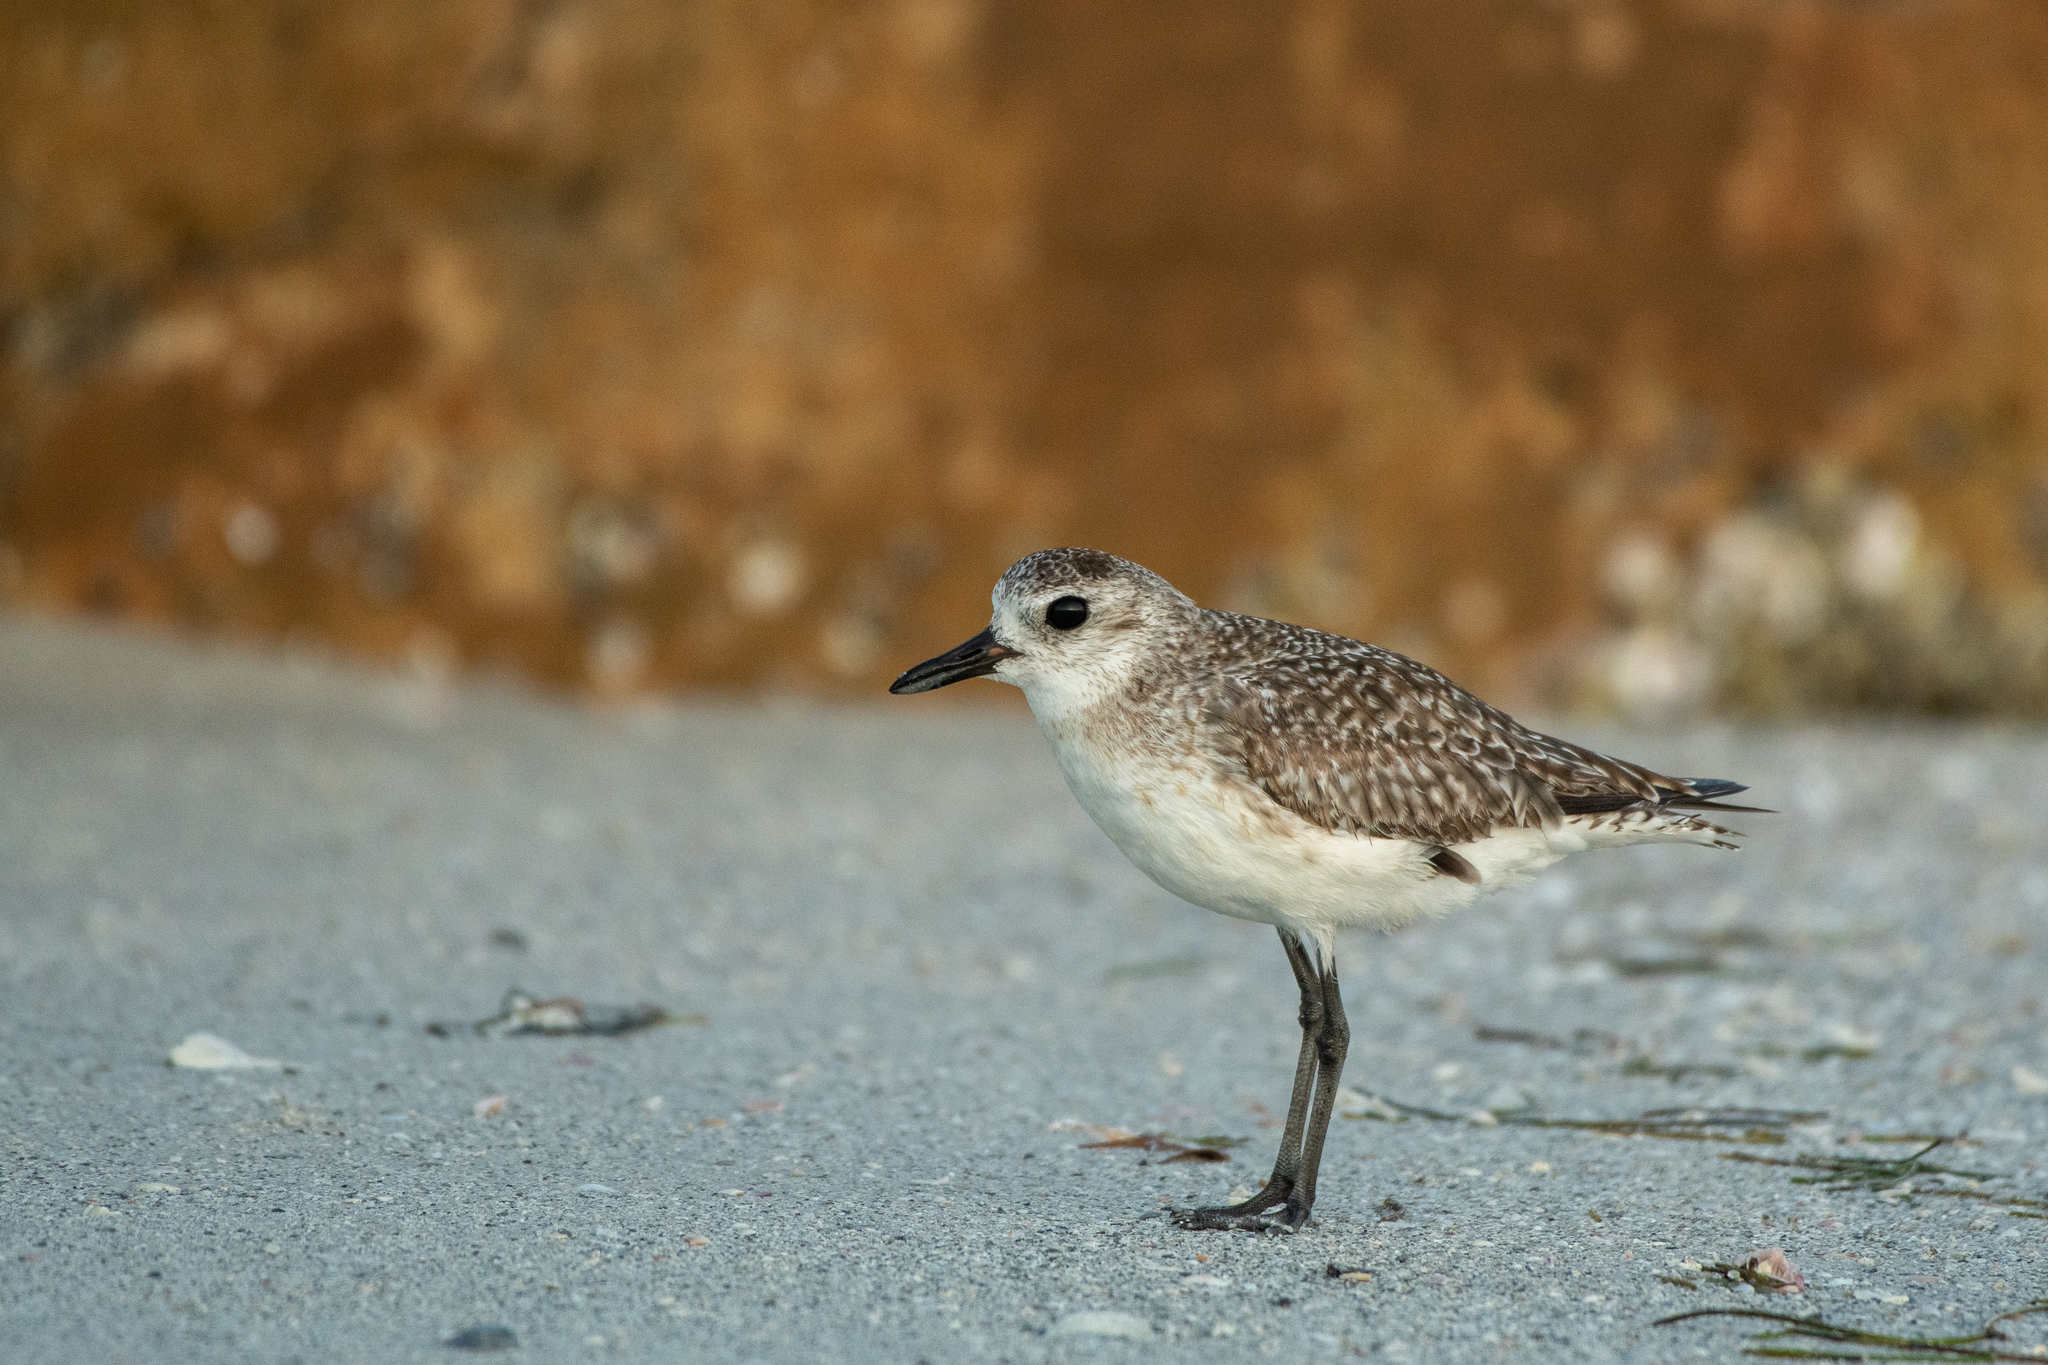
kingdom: Animalia
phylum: Chordata
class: Aves
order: Charadriiformes
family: Charadriidae
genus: Pluvialis
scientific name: Pluvialis squatarola
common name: Grey plover
